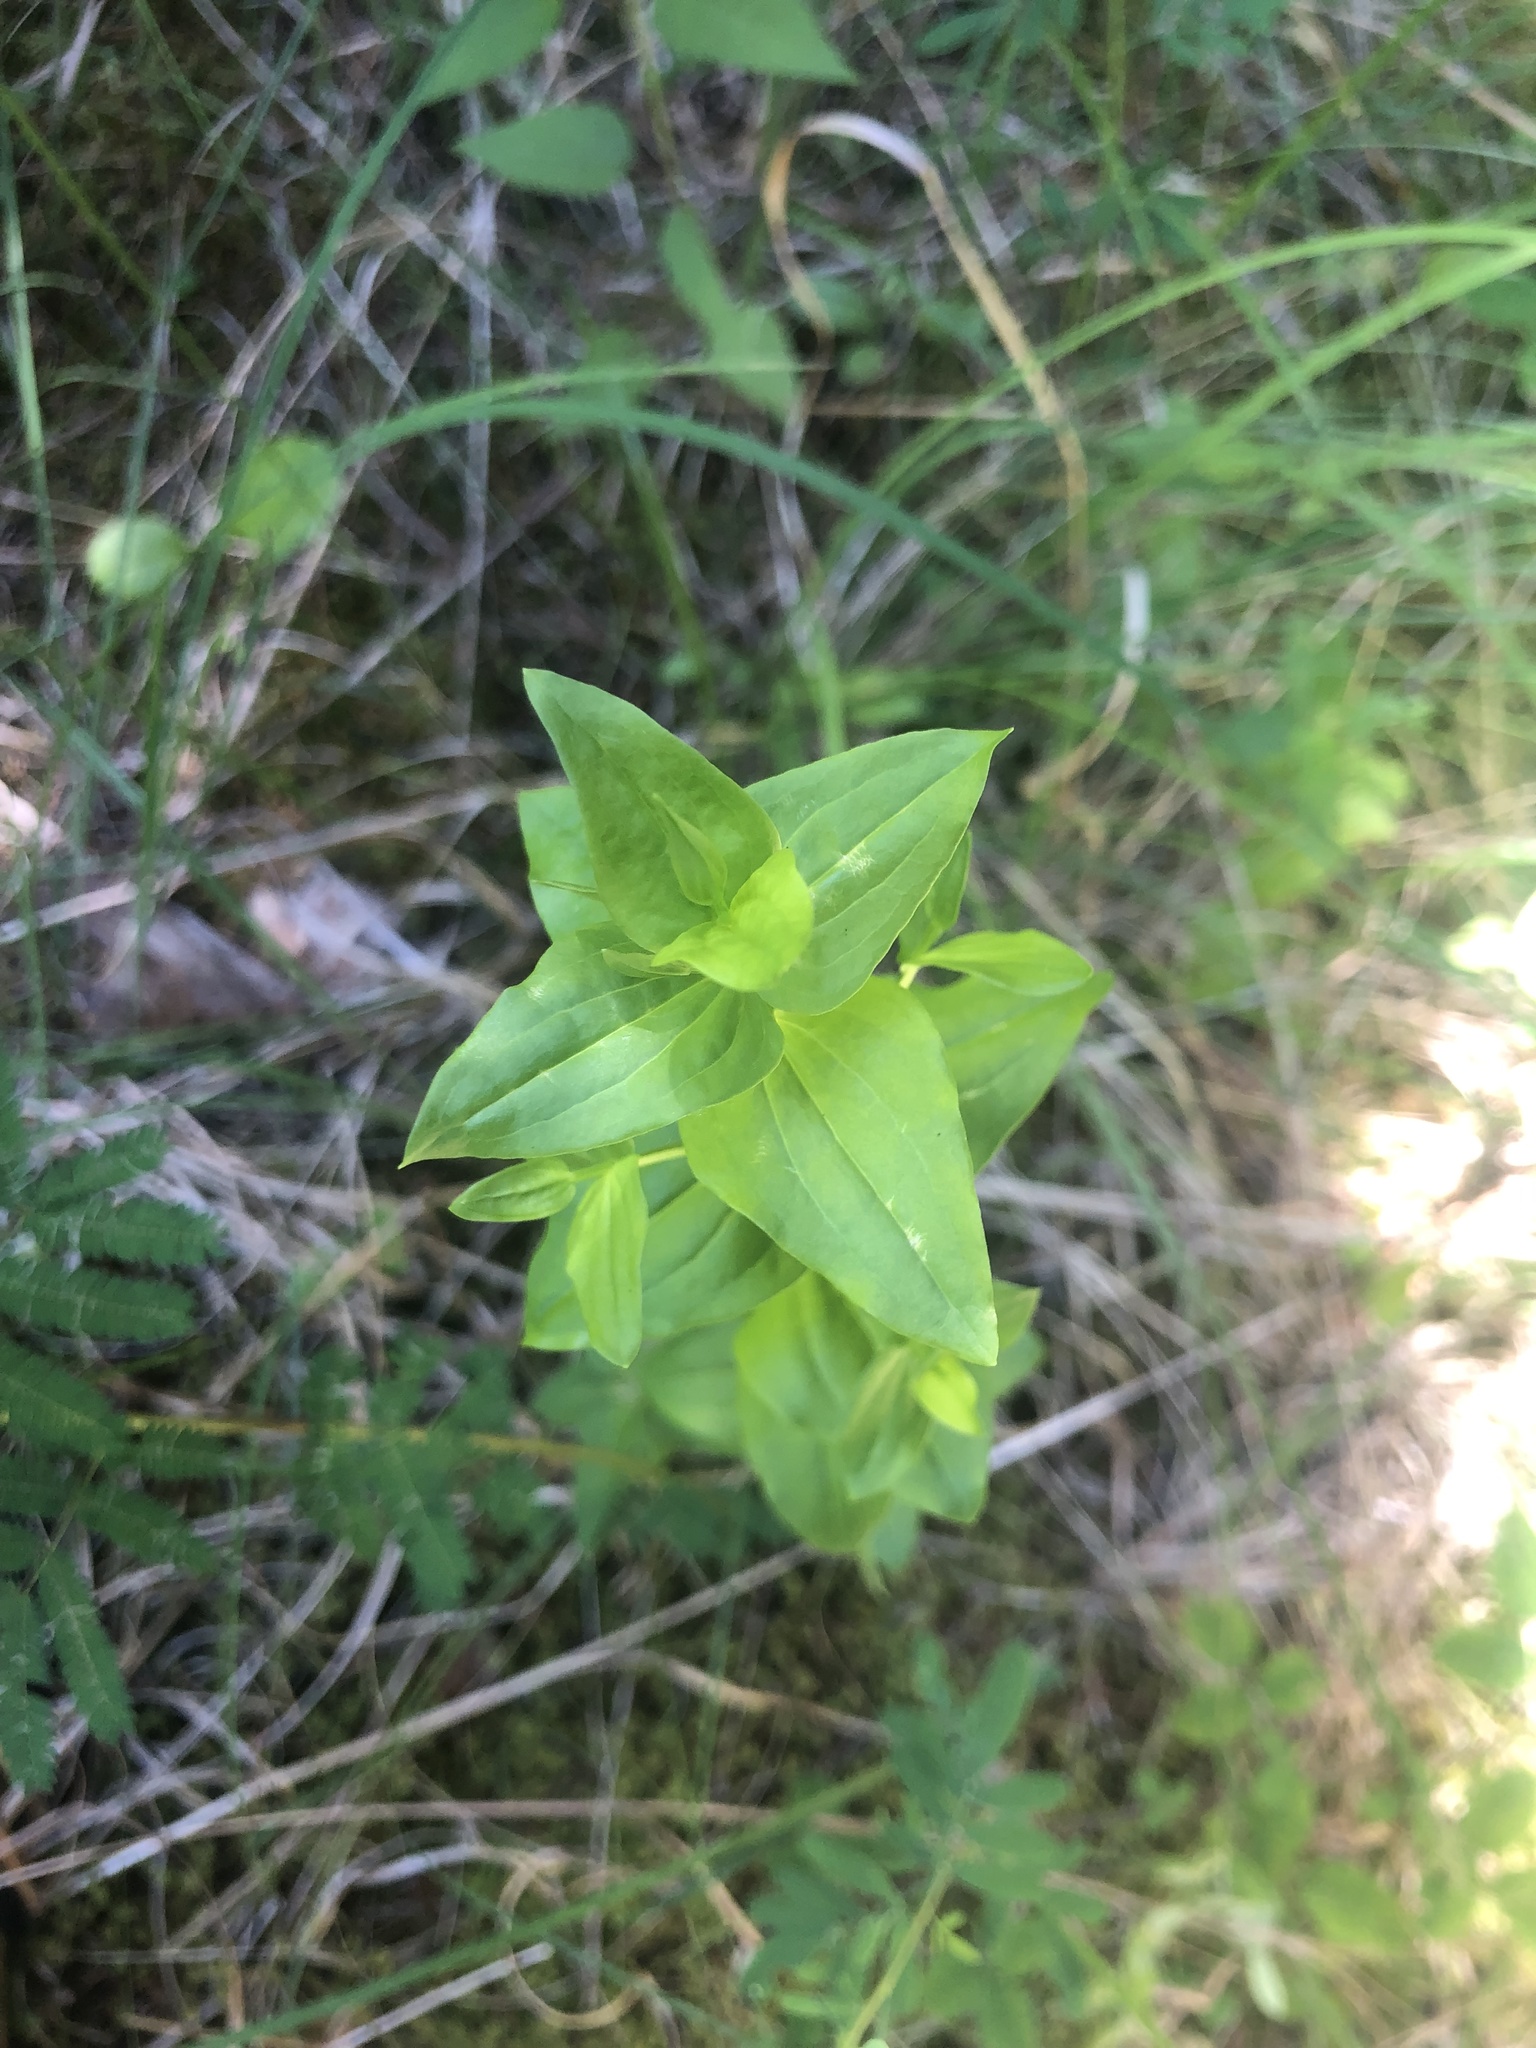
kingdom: Plantae
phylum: Tracheophyta
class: Magnoliopsida
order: Gentianales
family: Gentianaceae
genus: Sabatia
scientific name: Sabatia angularis
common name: Rose-pink
